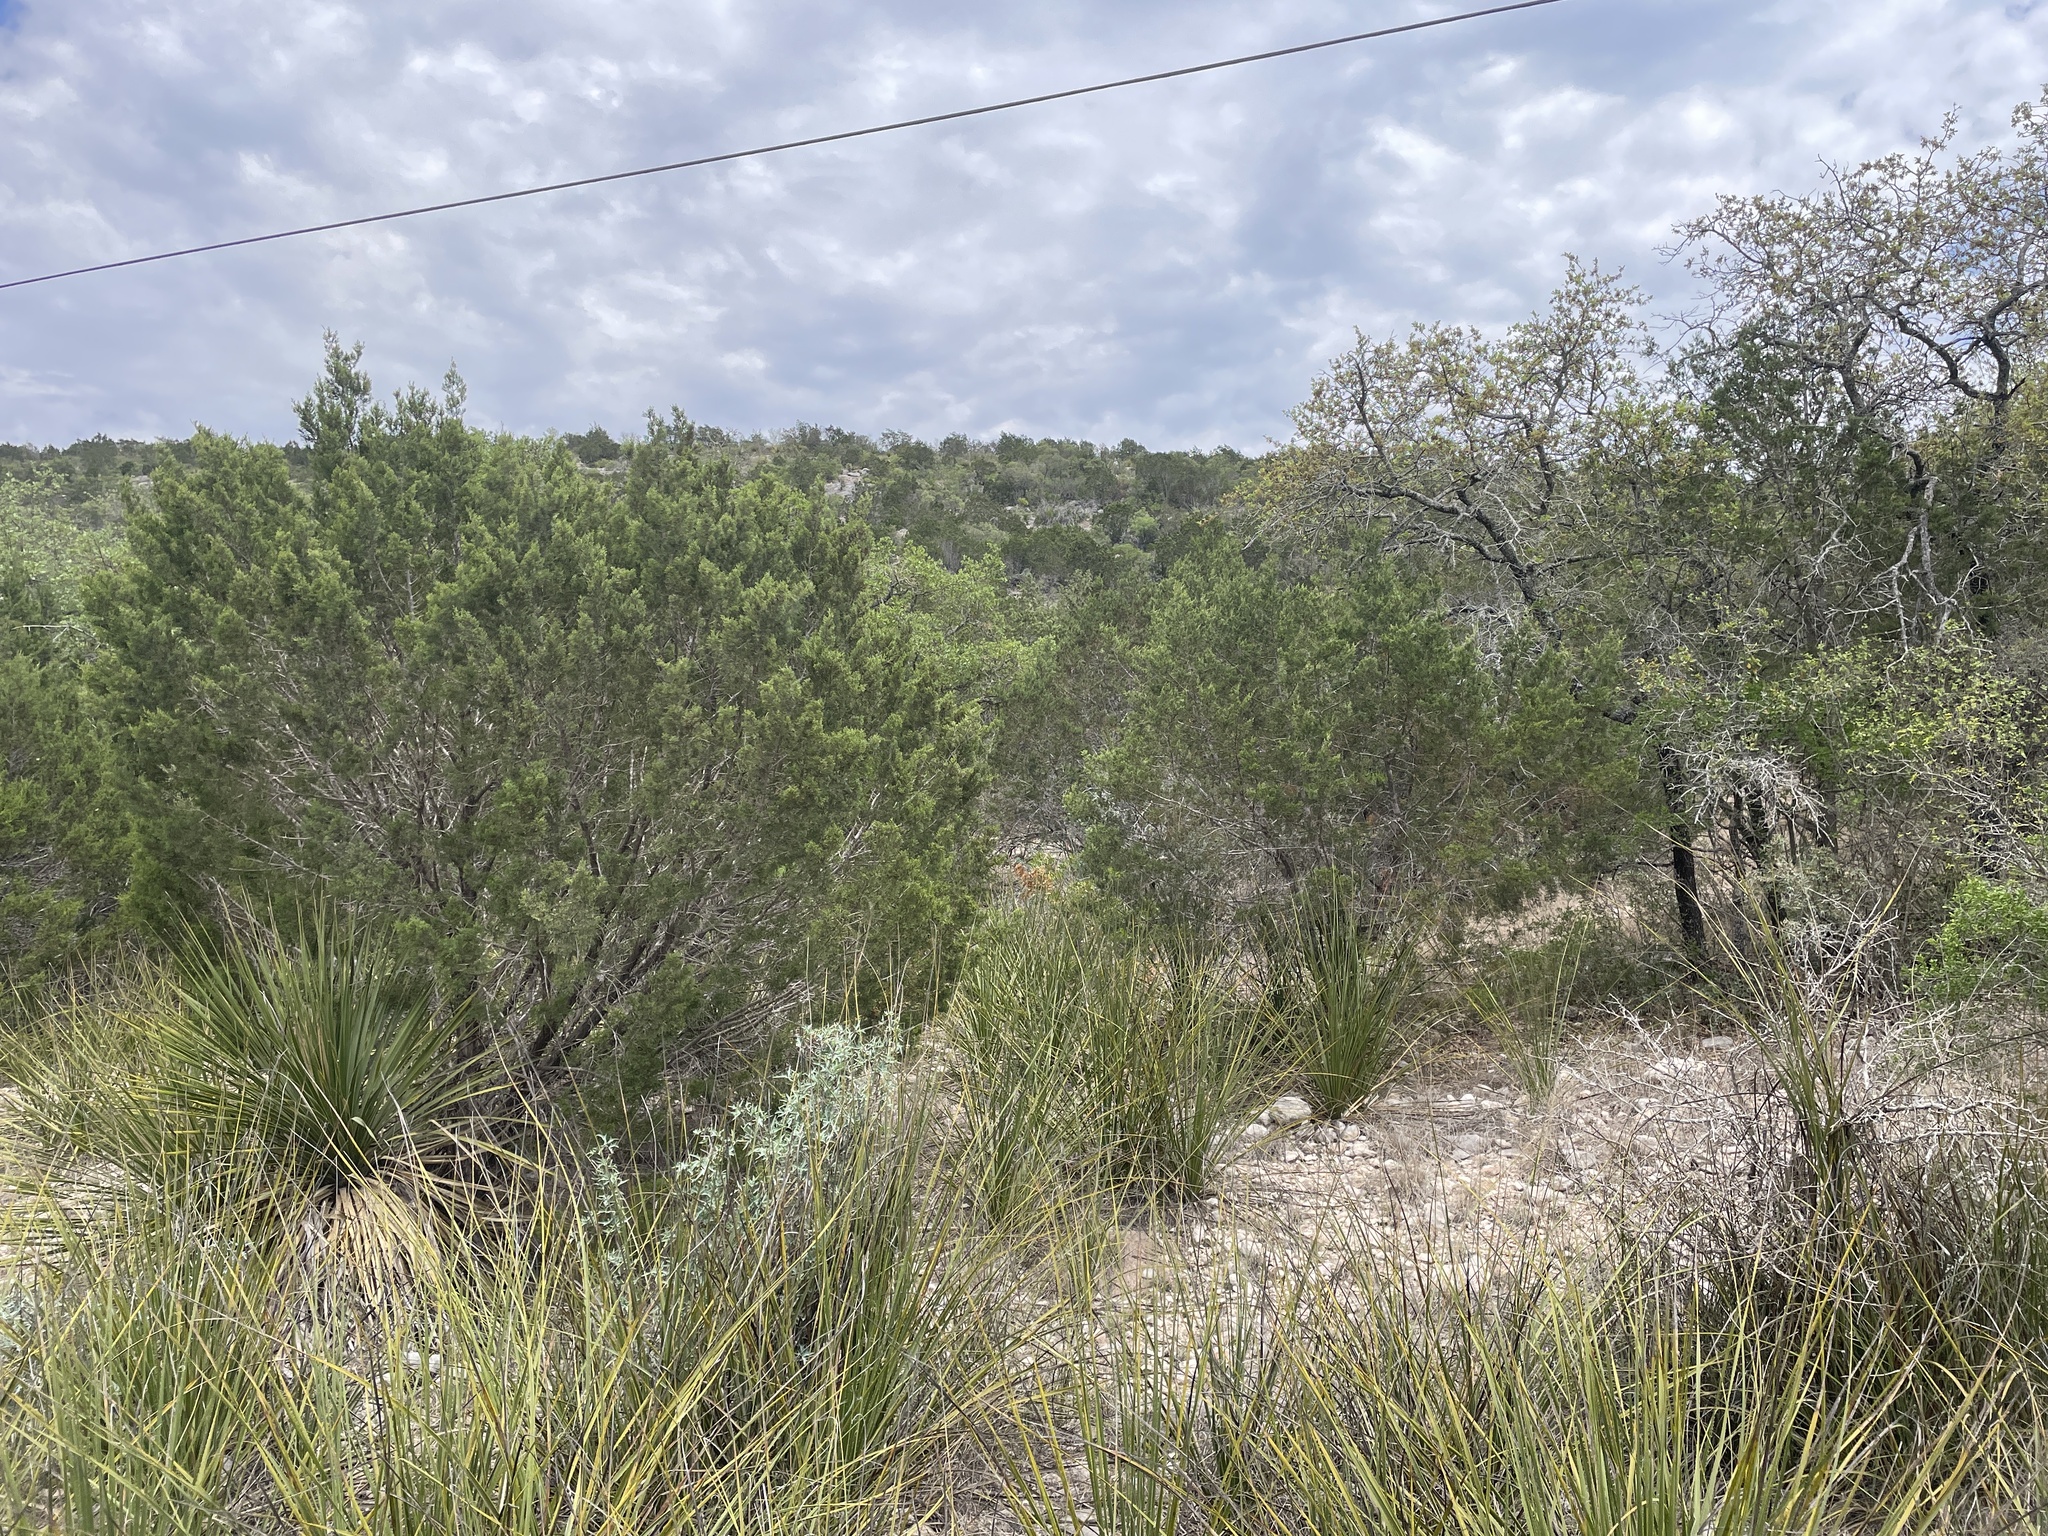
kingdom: Animalia
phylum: Chordata
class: Aves
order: Passeriformes
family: Parulidae
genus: Mniotilta
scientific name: Mniotilta varia
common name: Black-and-white warbler
